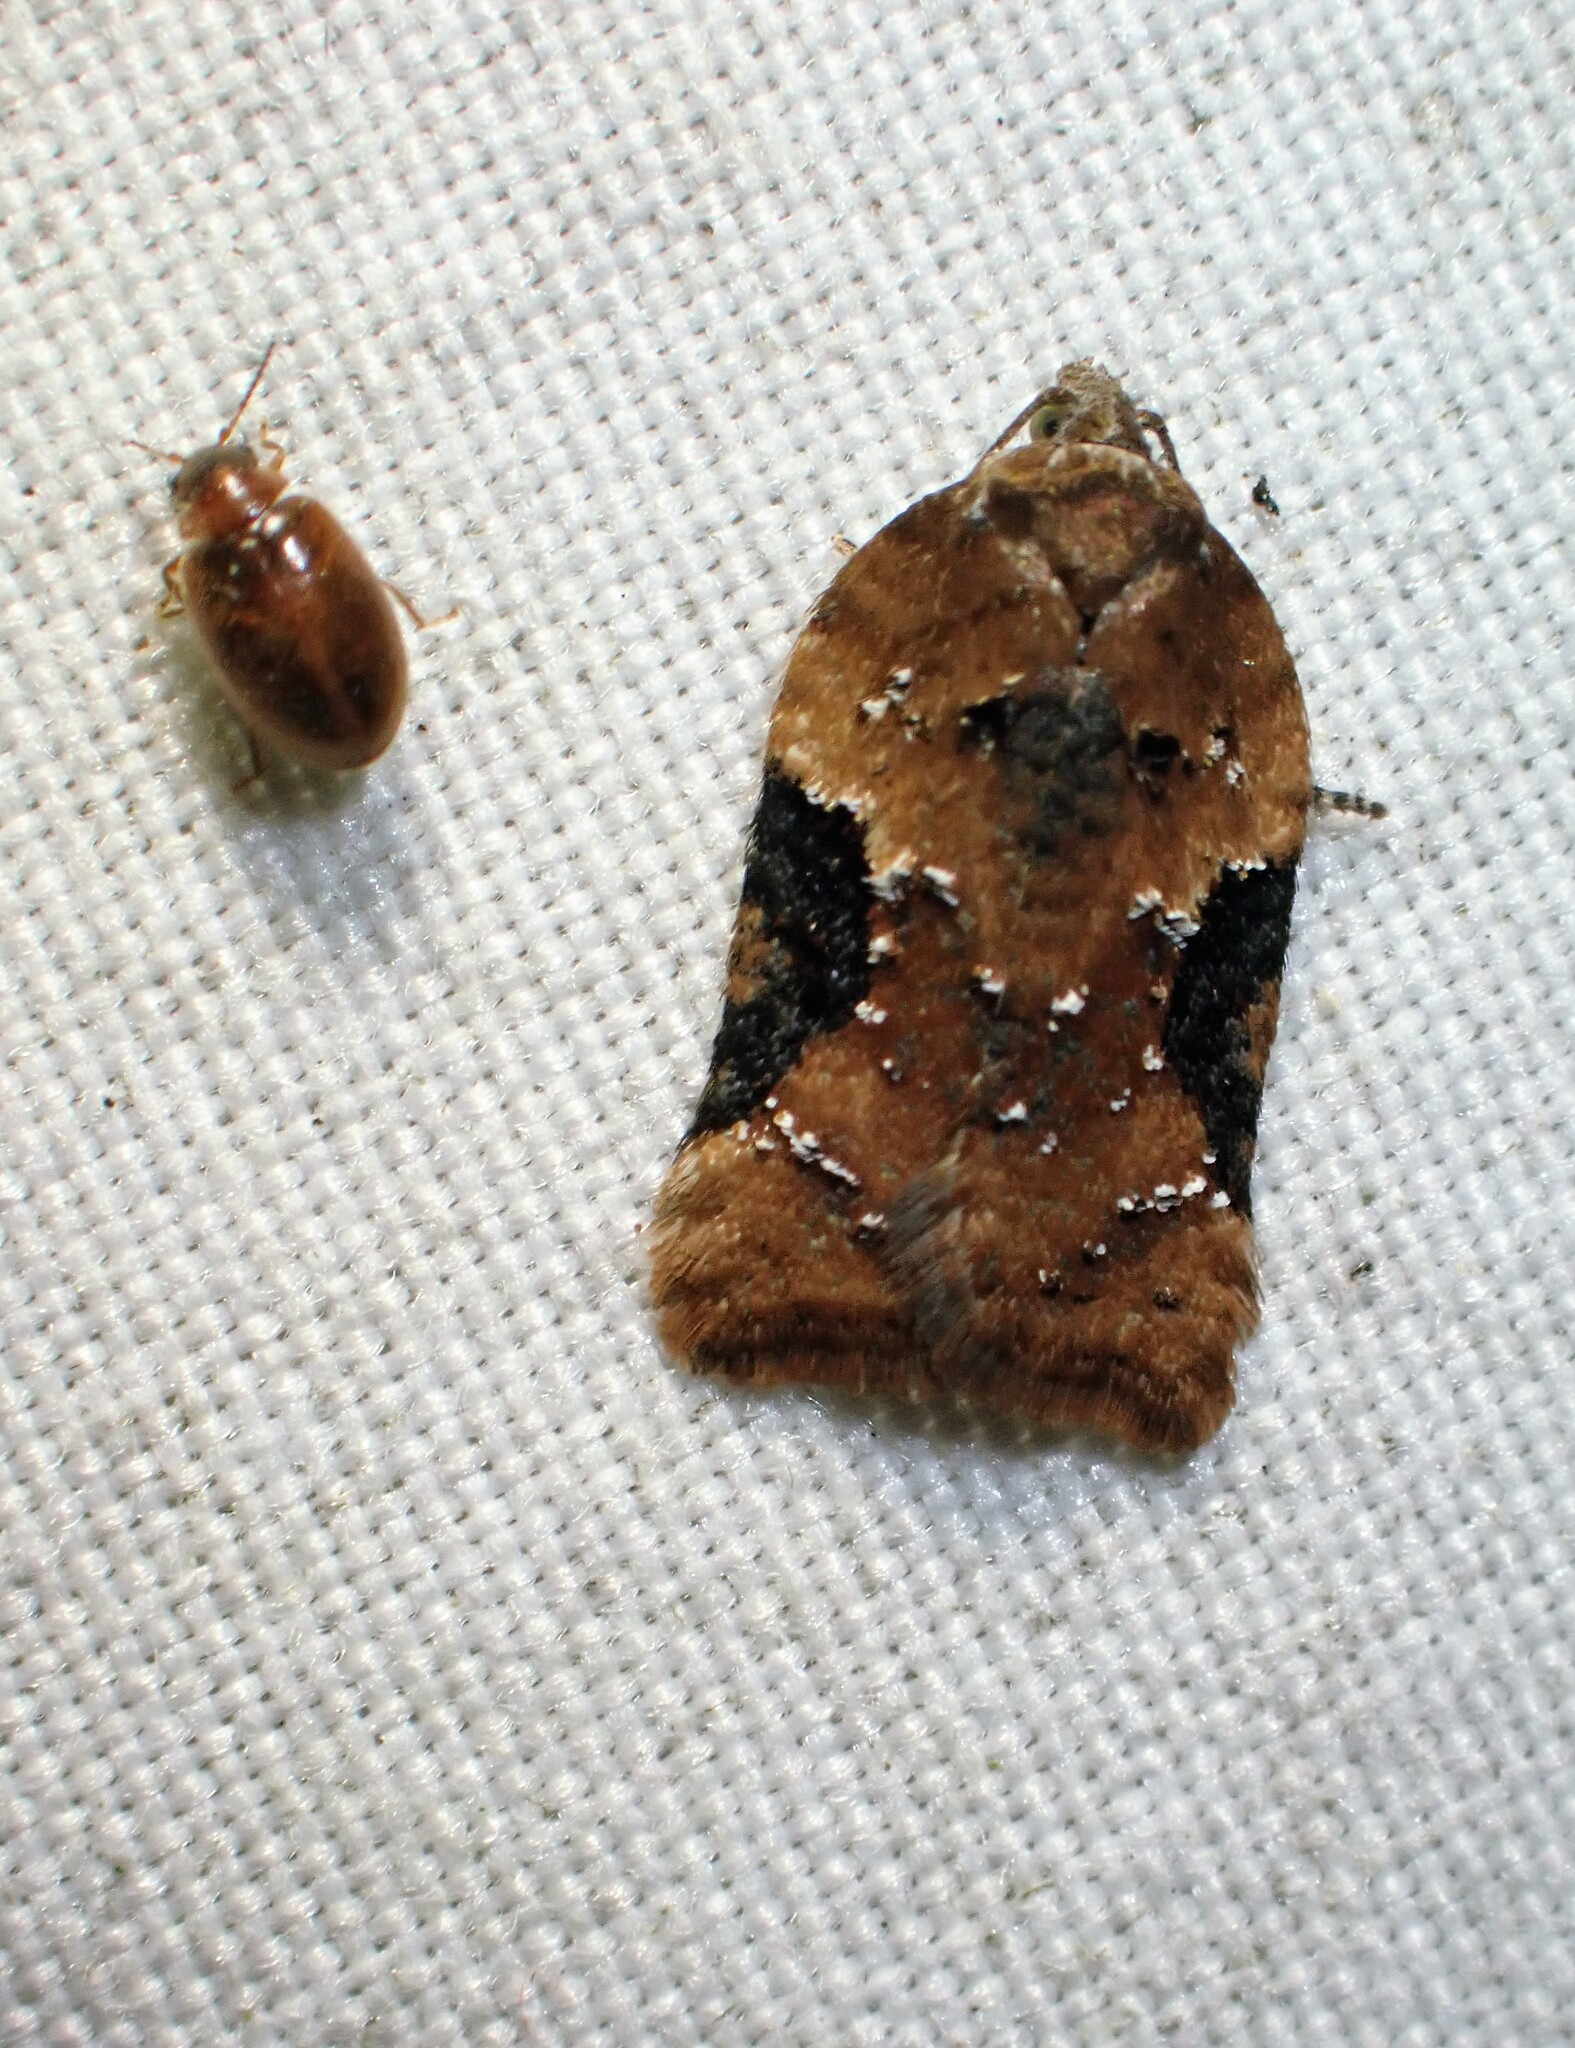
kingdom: Animalia
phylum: Arthropoda
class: Insecta
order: Lepidoptera
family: Tortricidae
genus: Acleris
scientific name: Acleris braunana
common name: Alder leafroller
